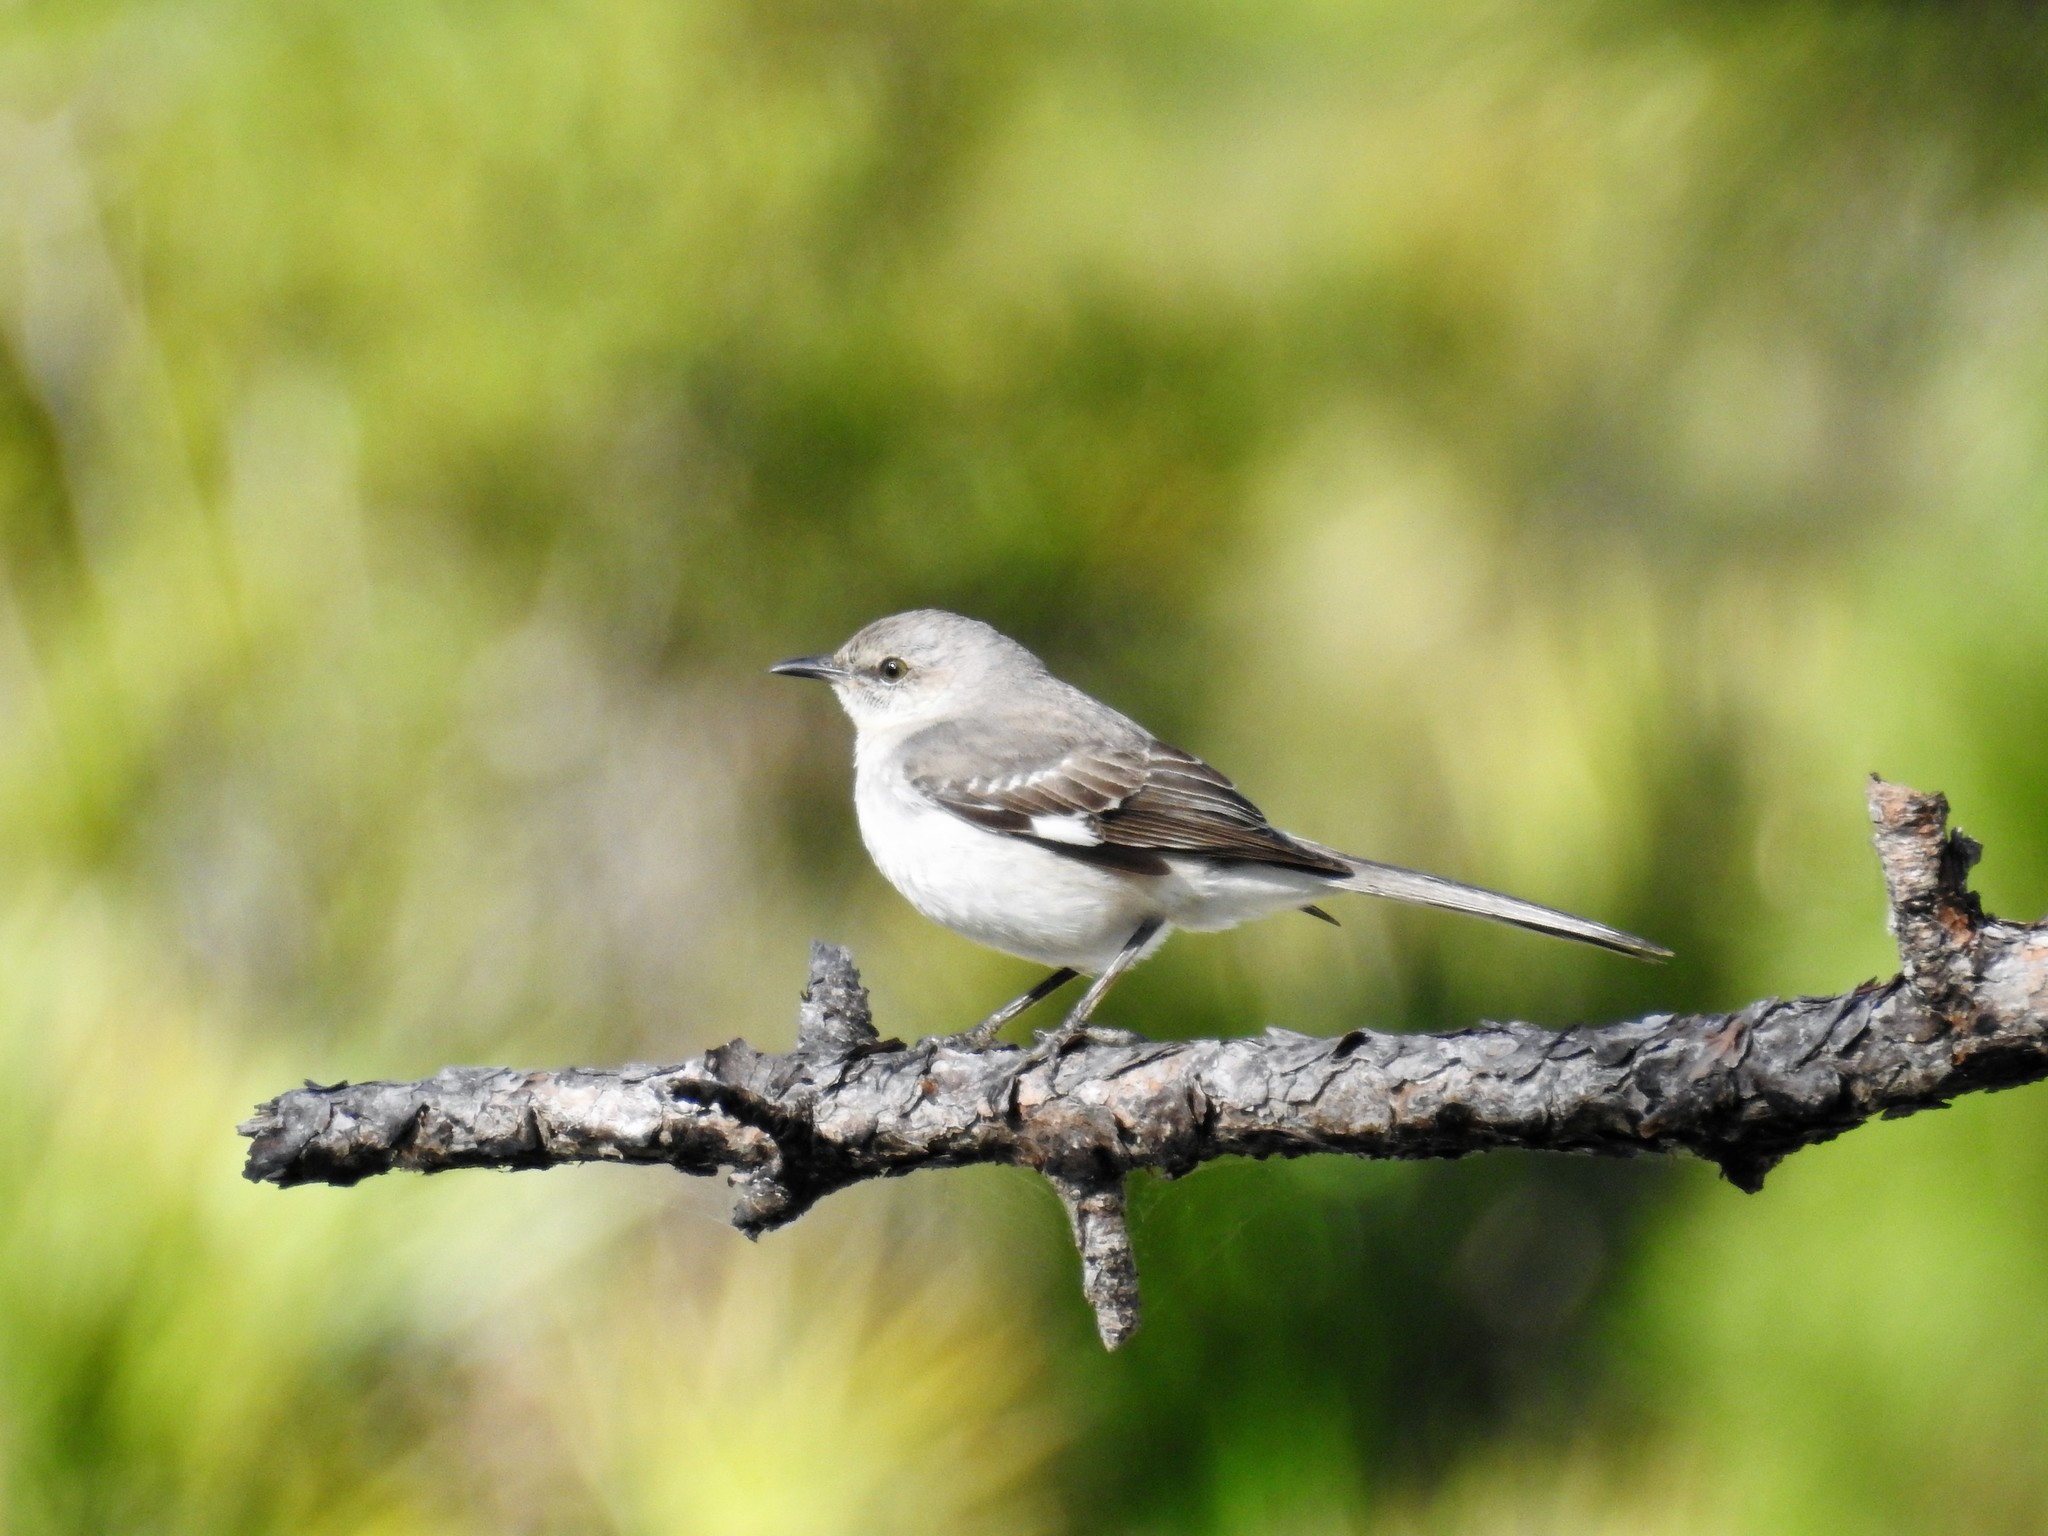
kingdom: Animalia
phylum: Chordata
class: Aves
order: Passeriformes
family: Mimidae
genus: Mimus
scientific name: Mimus polyglottos
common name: Northern mockingbird
